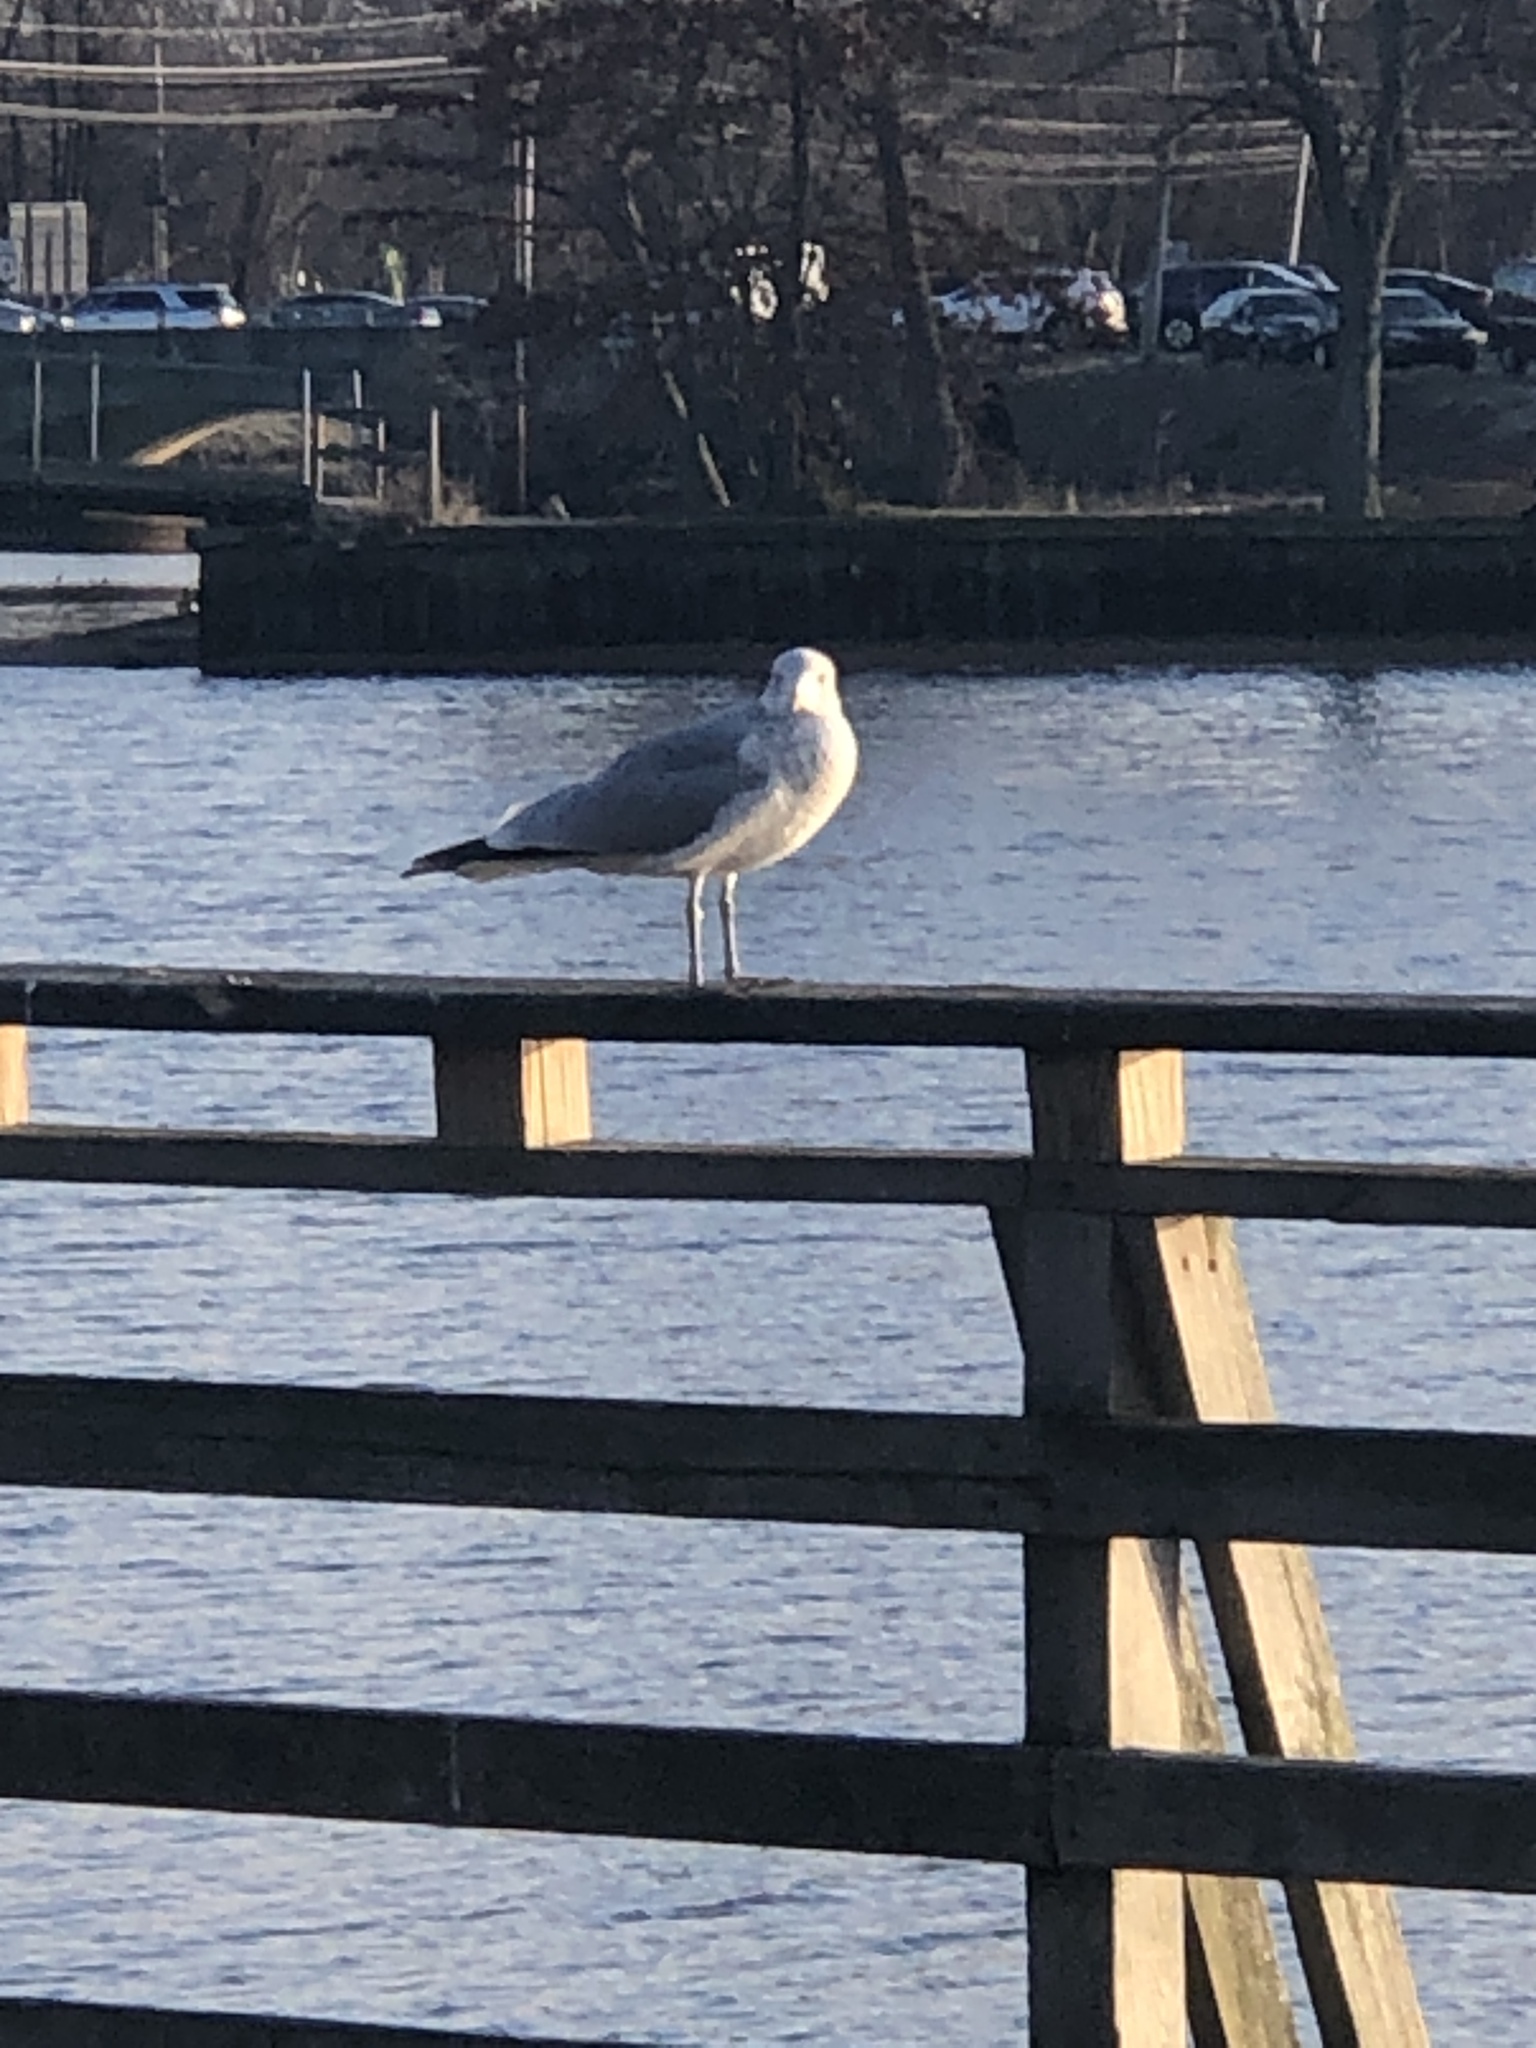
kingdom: Animalia
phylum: Chordata
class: Aves
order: Charadriiformes
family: Laridae
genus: Larus
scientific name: Larus delawarensis
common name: Ring-billed gull
